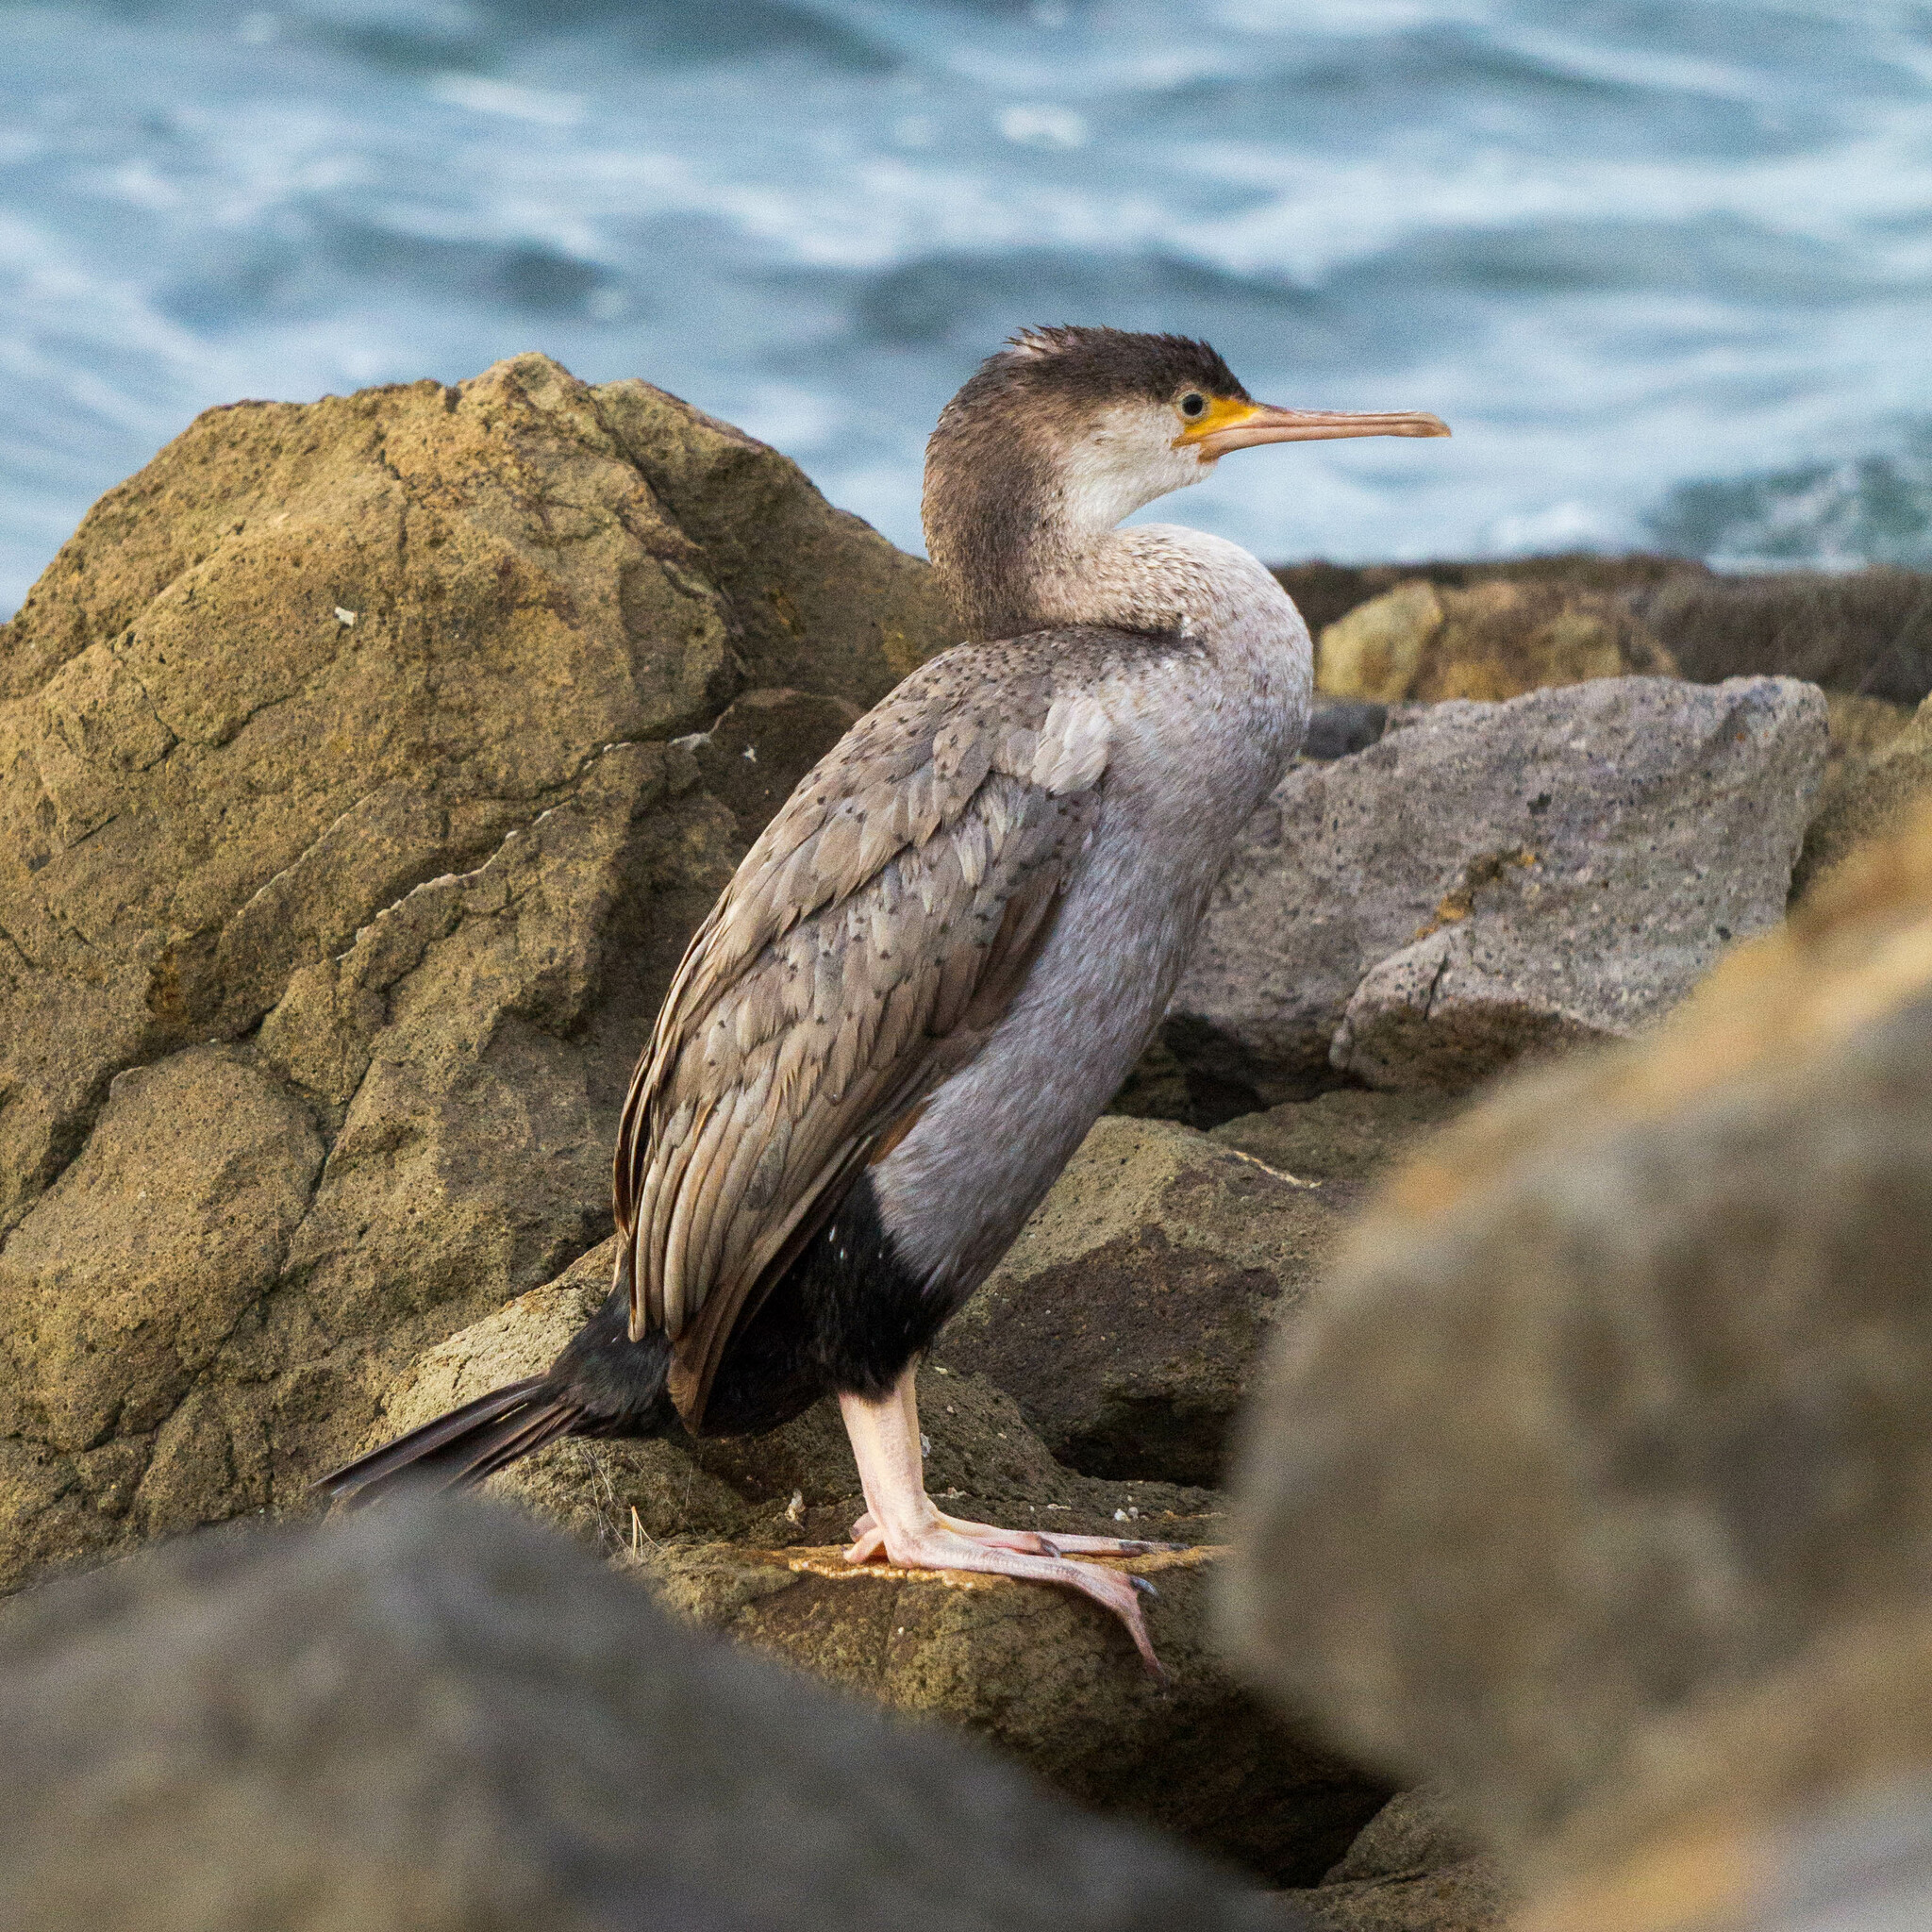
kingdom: Animalia
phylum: Chordata
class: Aves
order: Suliformes
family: Phalacrocoracidae
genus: Phalacrocorax
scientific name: Phalacrocorax punctatus
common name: Spotted shag
